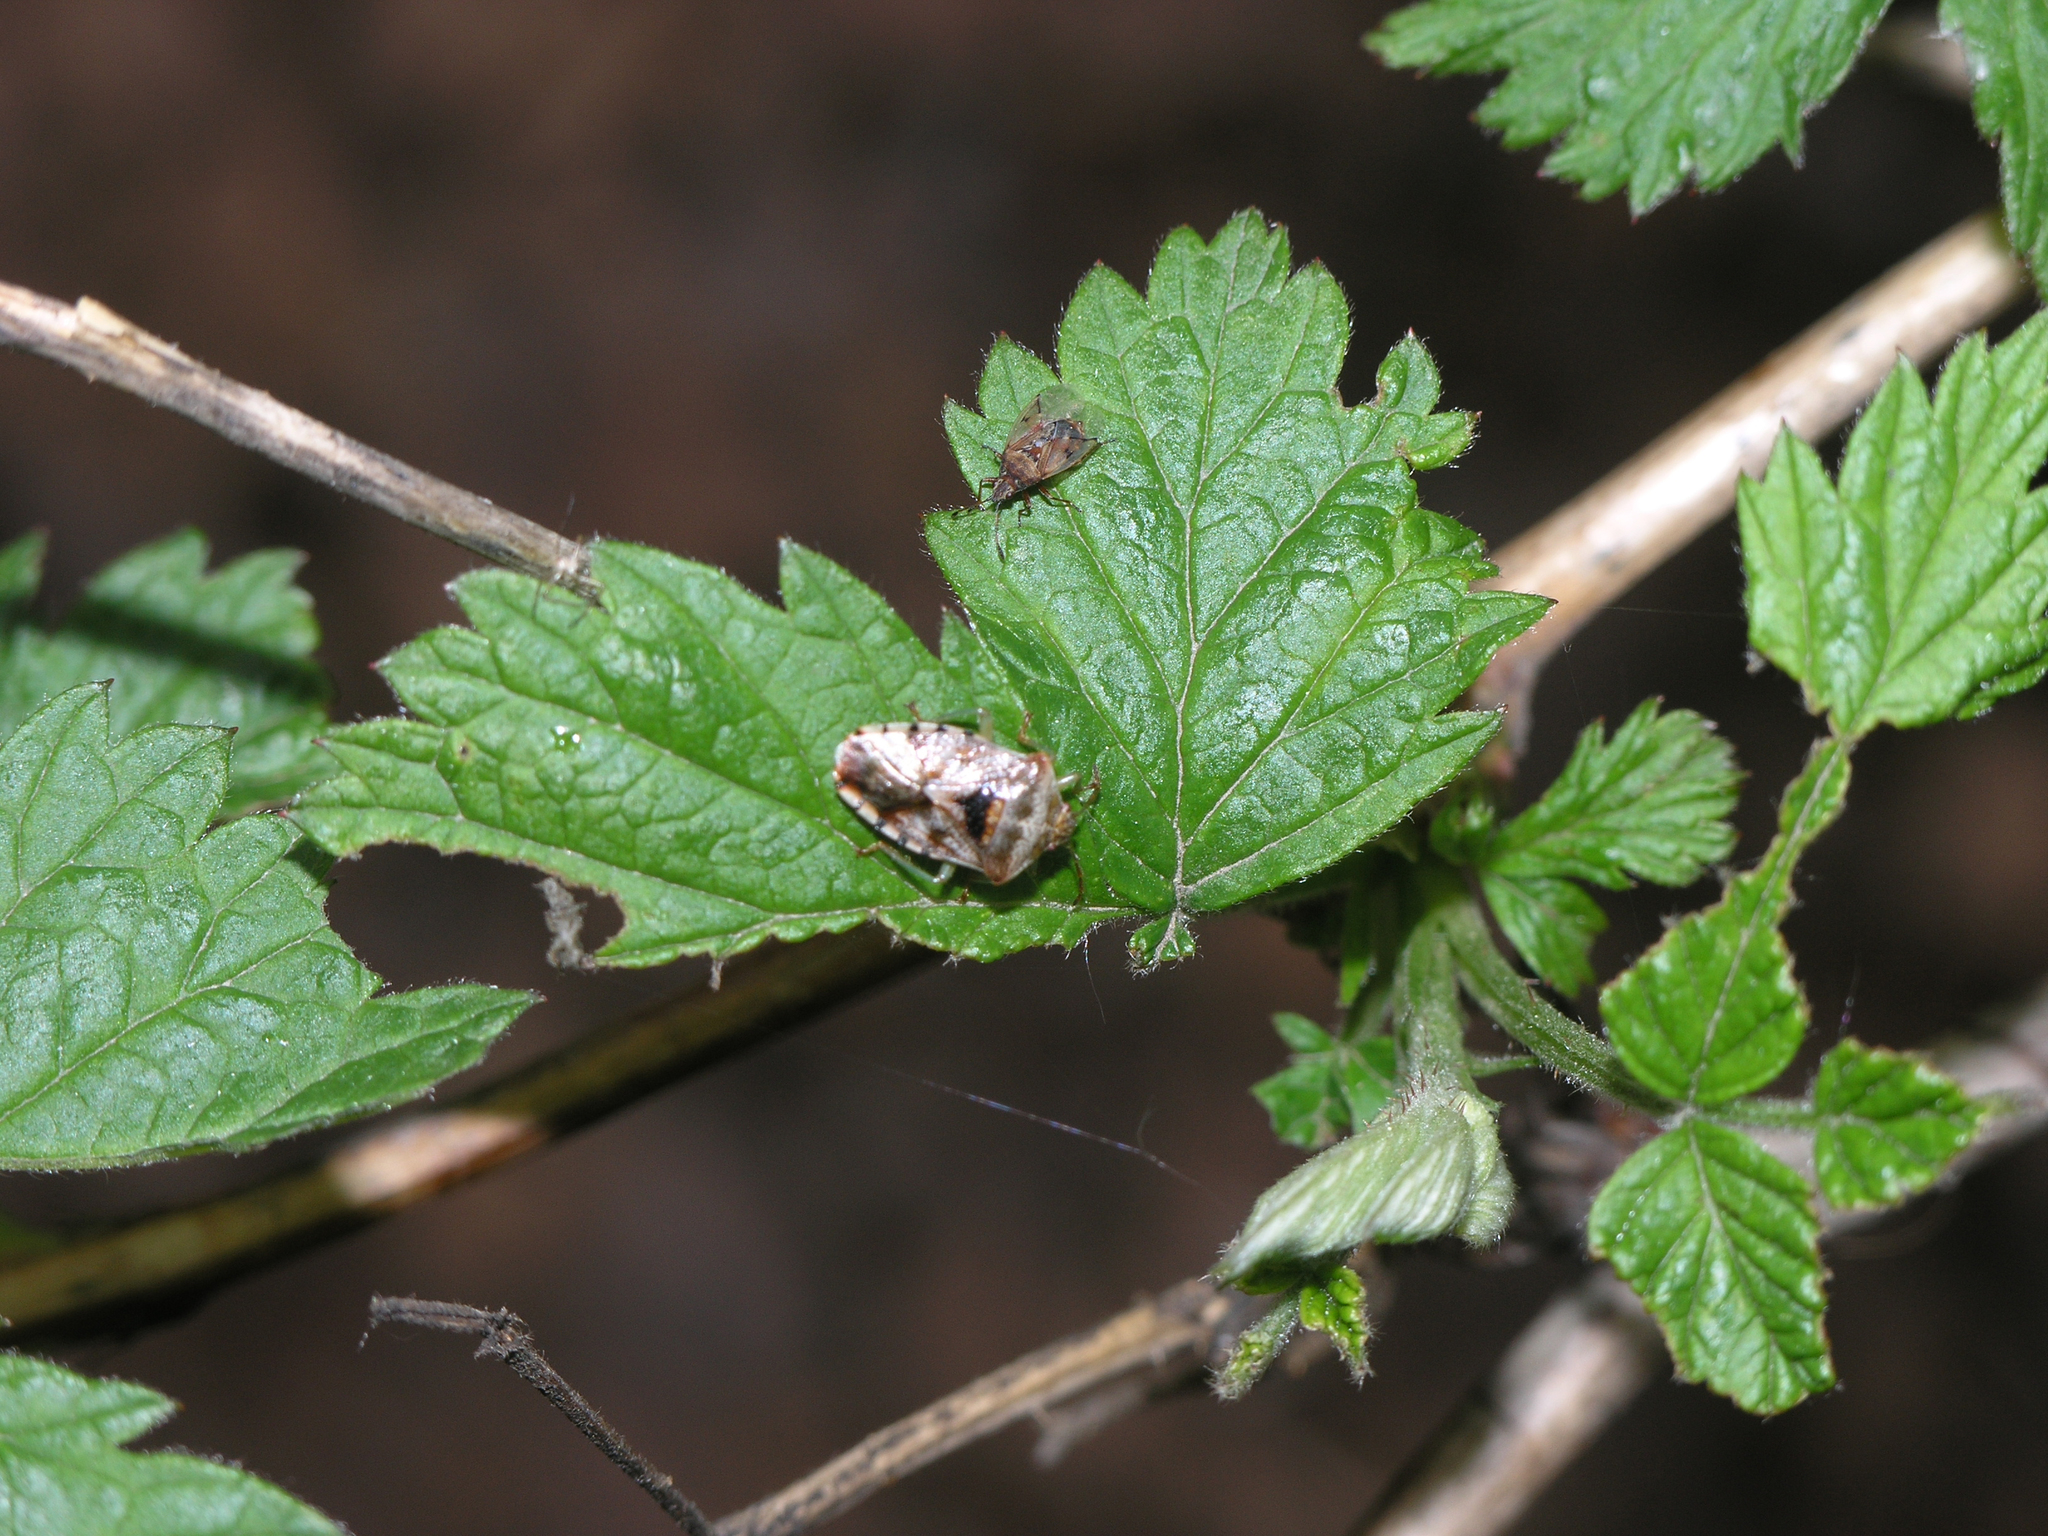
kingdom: Plantae
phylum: Tracheophyta
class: Magnoliopsida
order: Rosales
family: Rosaceae
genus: Rubus
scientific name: Rubus idaeus
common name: Raspberry
